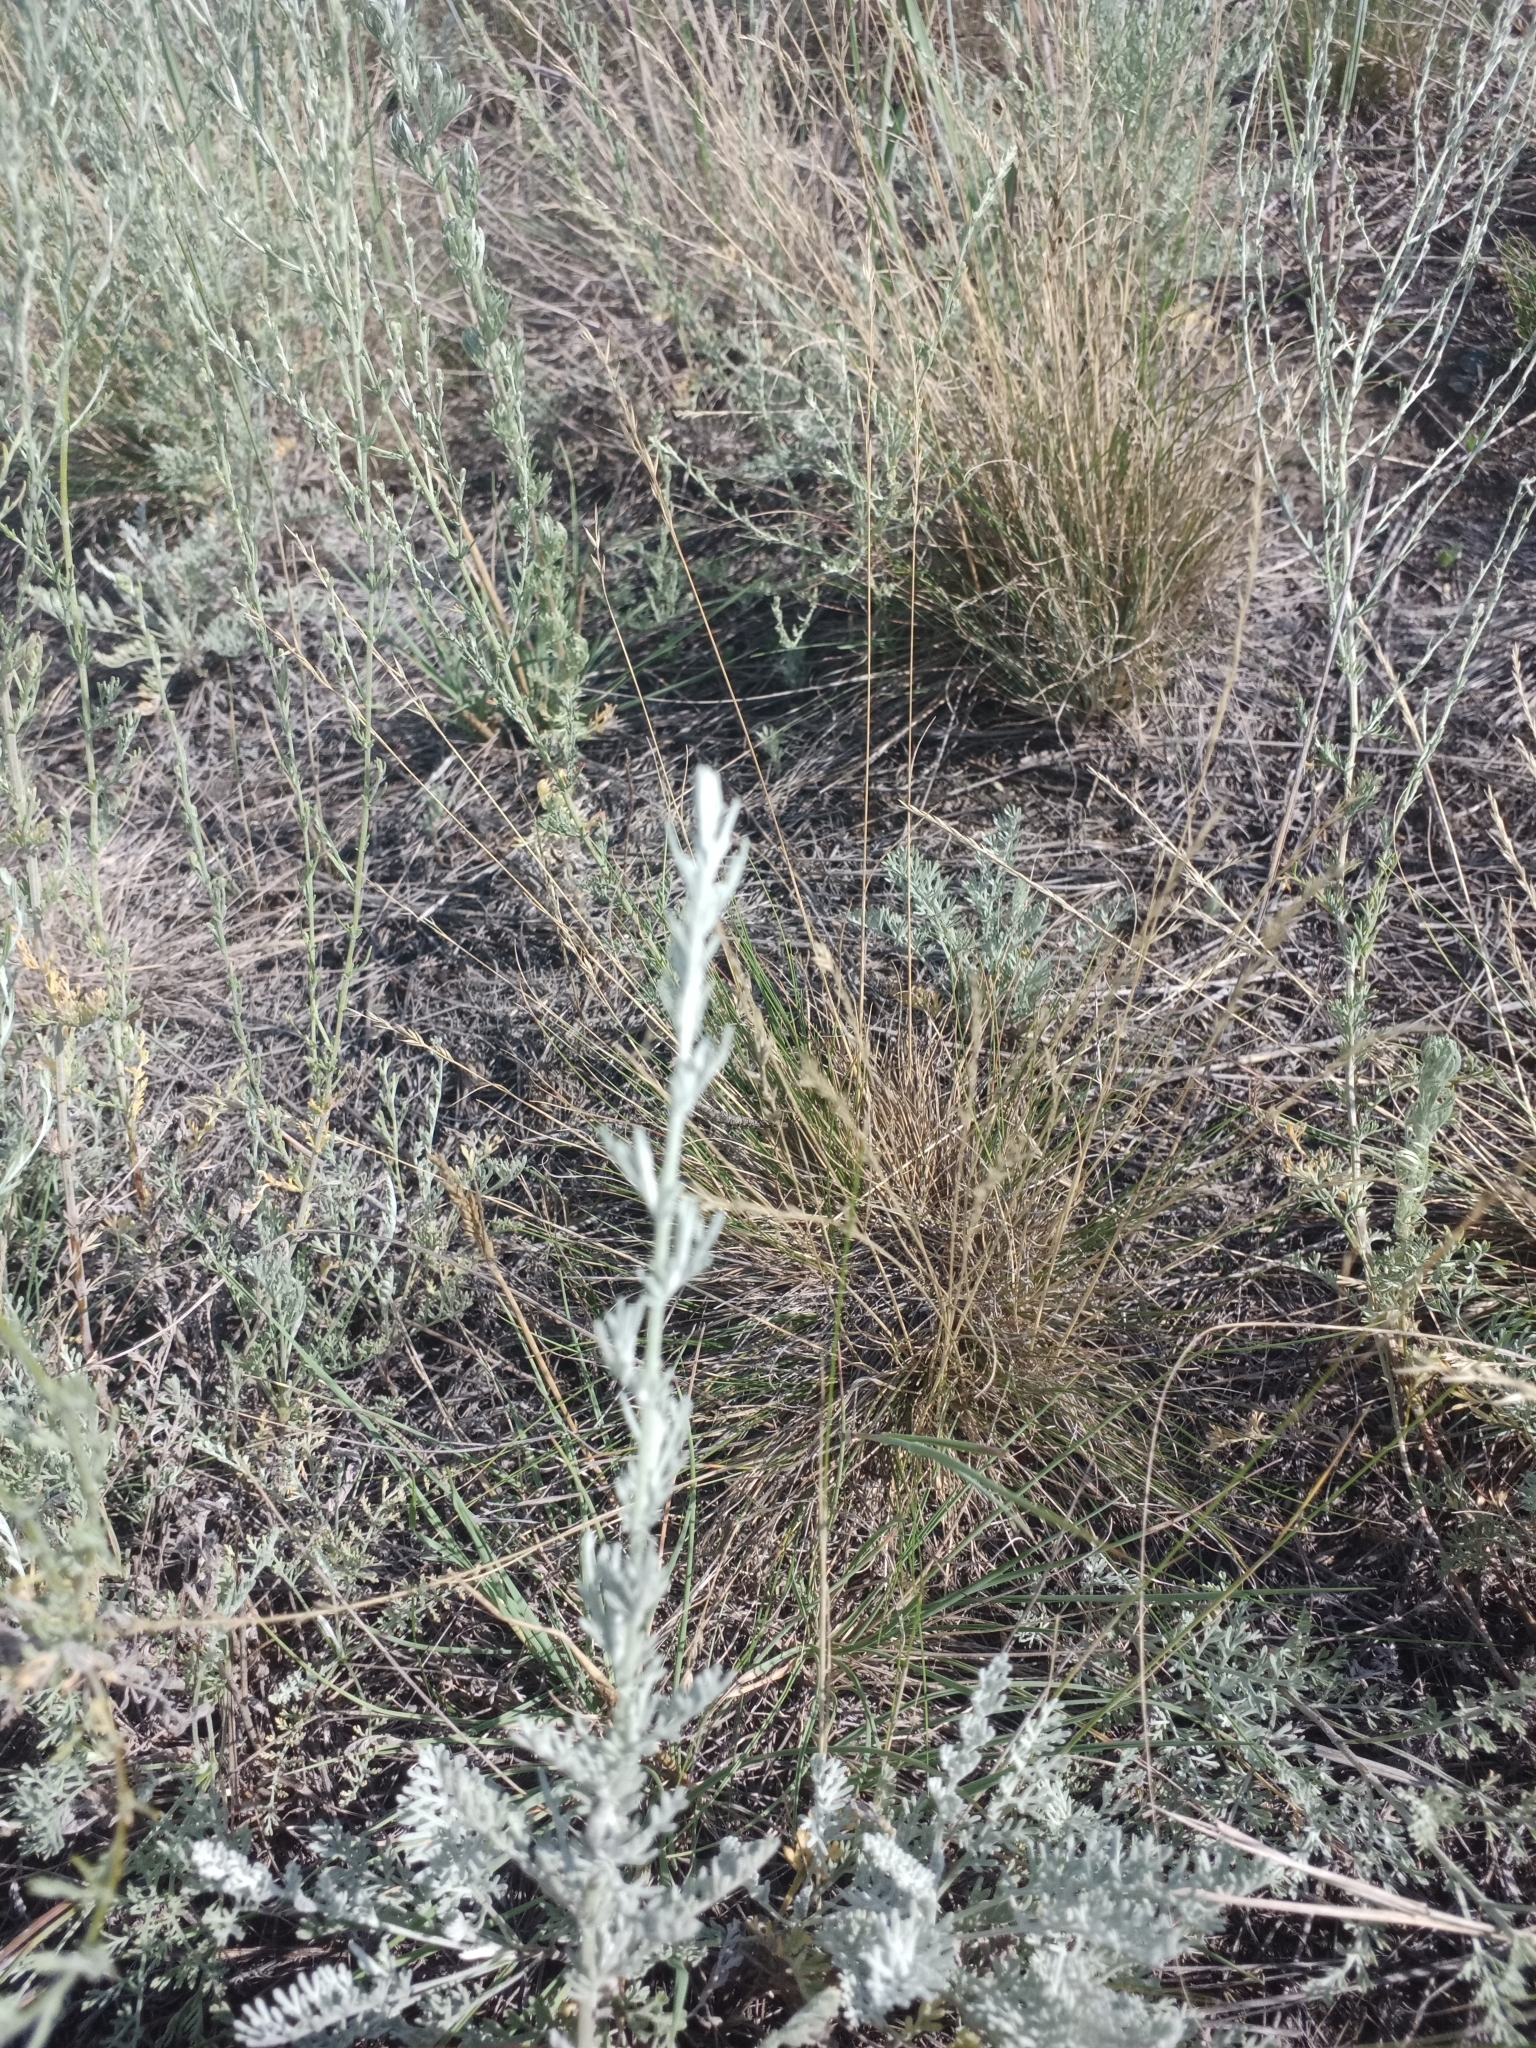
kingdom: Plantae
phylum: Tracheophyta
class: Magnoliopsida
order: Asterales
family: Asteraceae
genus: Artemisia
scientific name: Artemisia nitrosa
